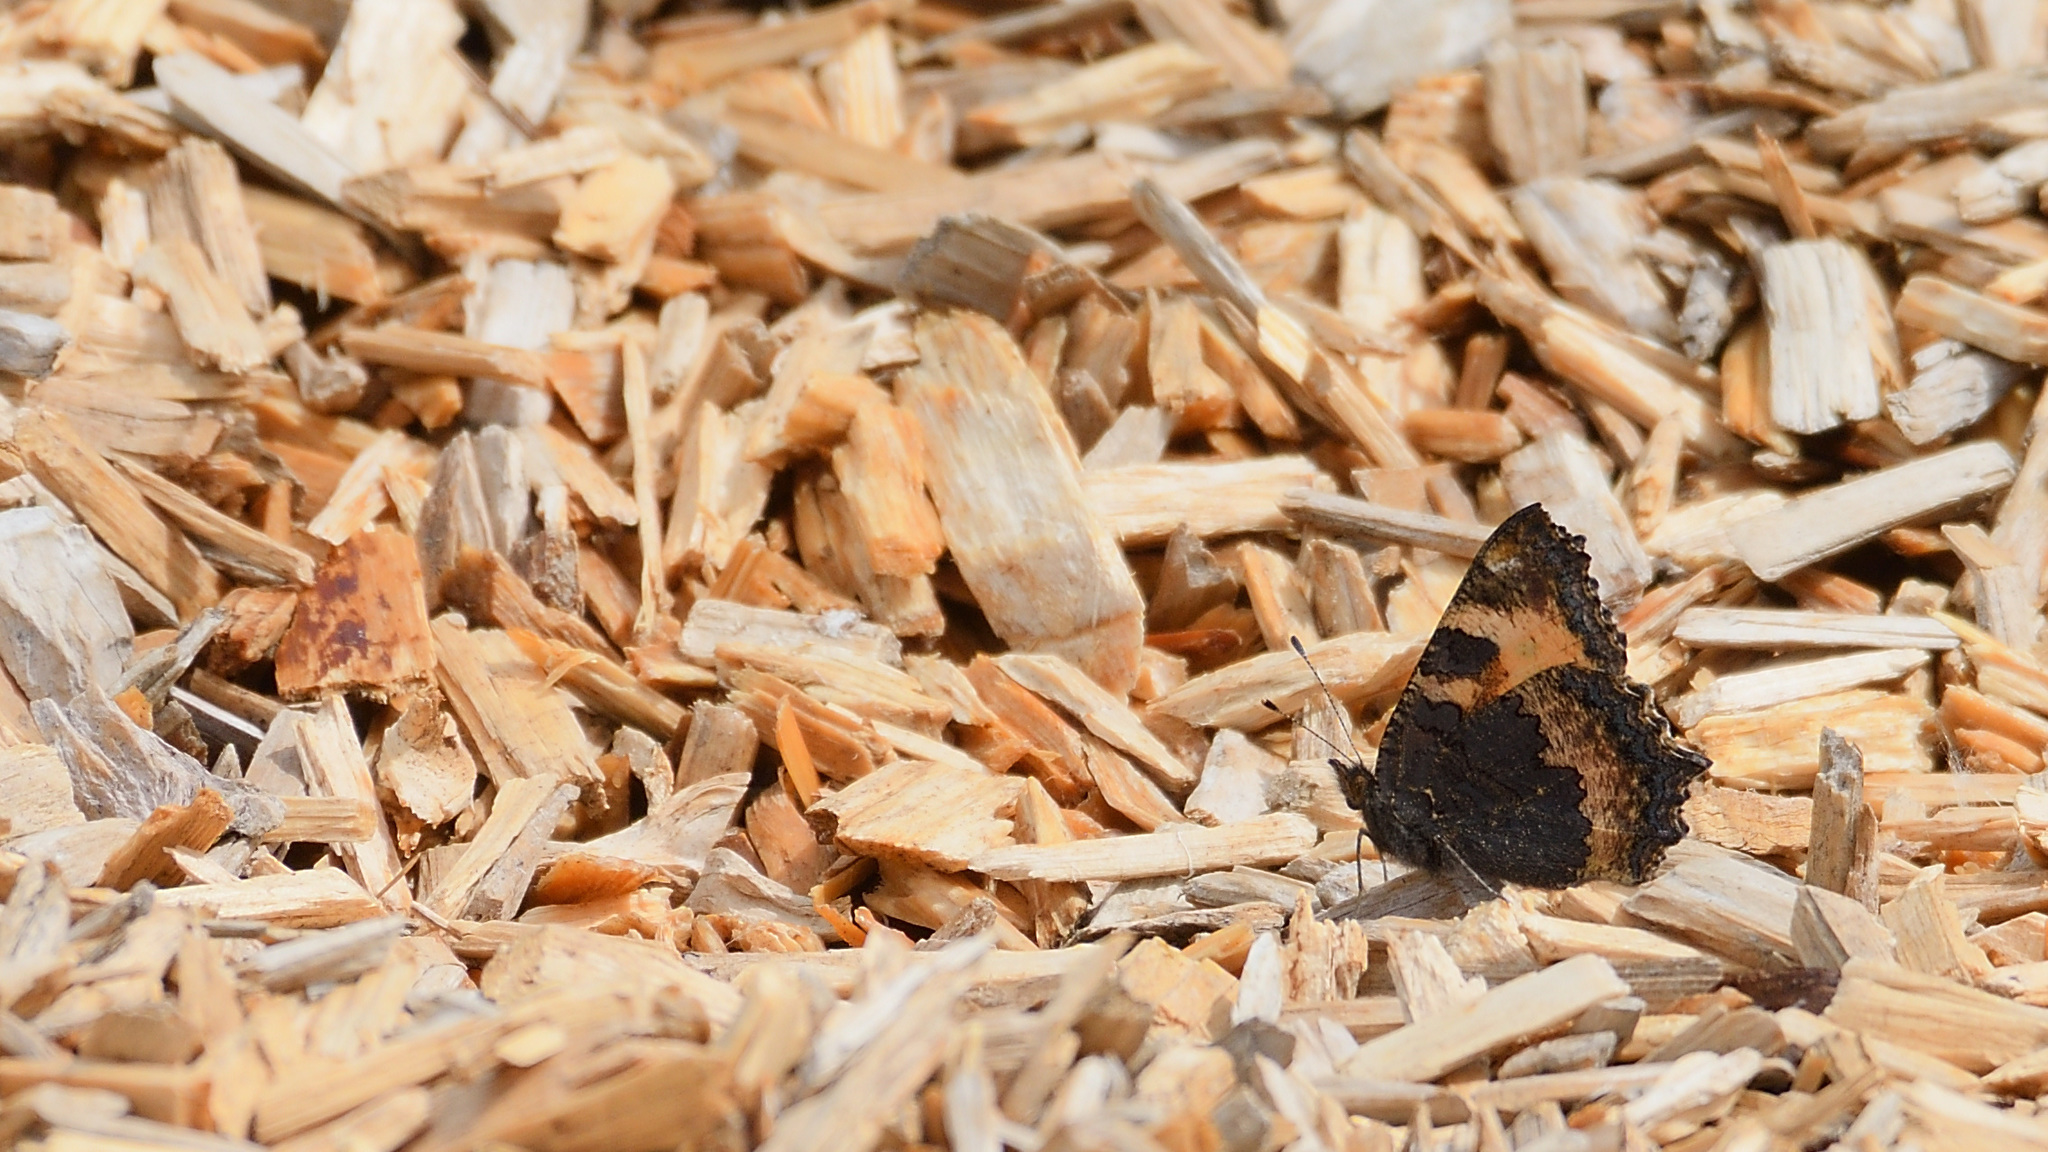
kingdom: Animalia
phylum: Arthropoda
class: Insecta
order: Lepidoptera
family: Nymphalidae
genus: Aglais
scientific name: Aglais urticae
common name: Small tortoiseshell
